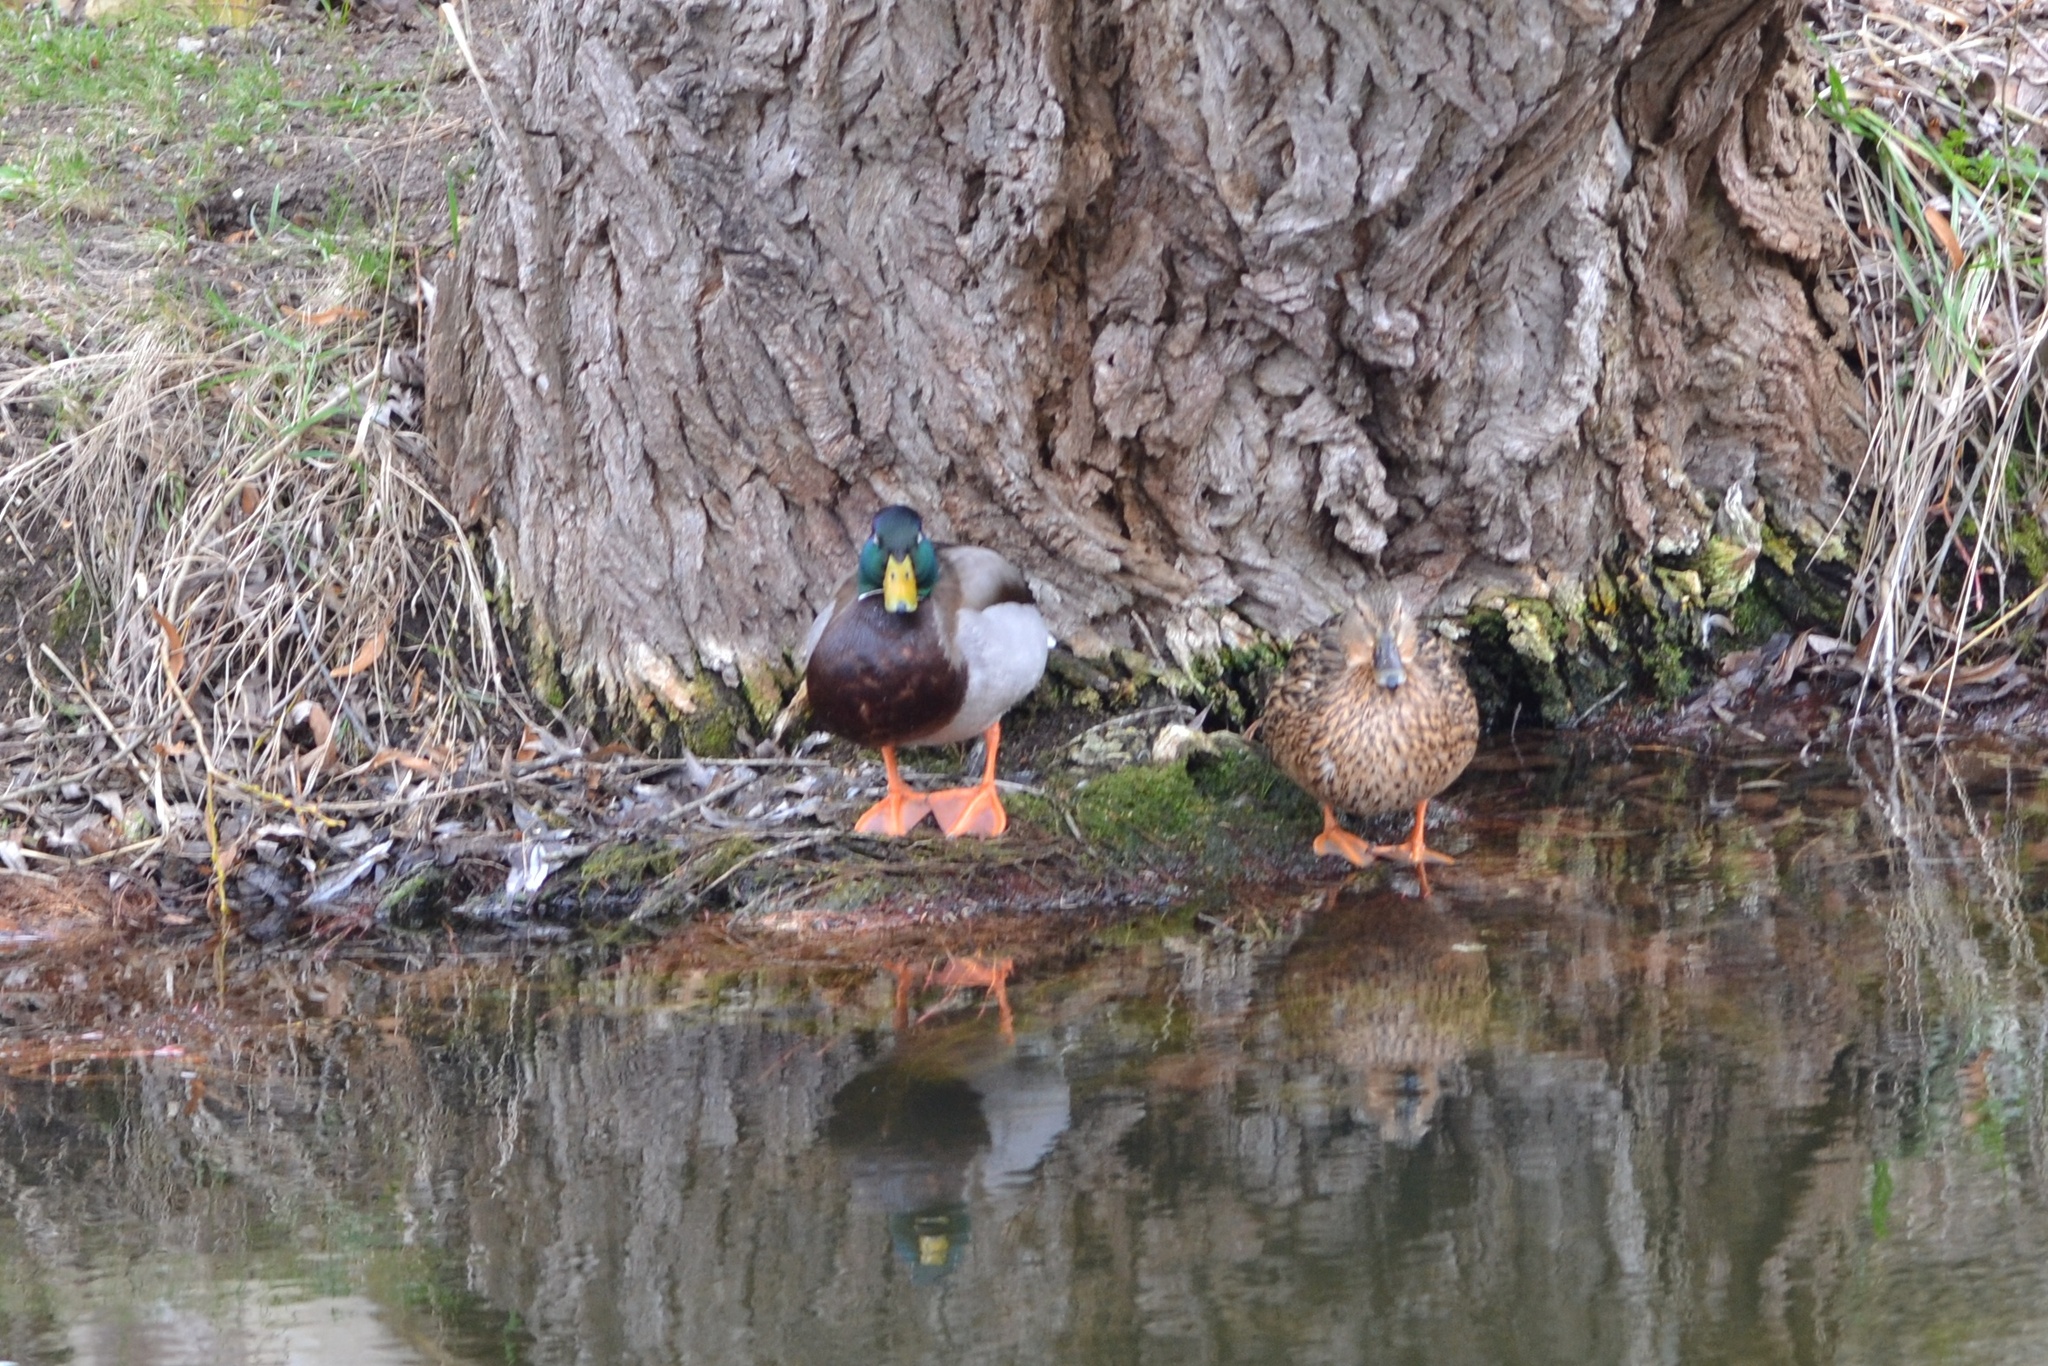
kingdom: Animalia
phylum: Chordata
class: Aves
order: Anseriformes
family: Anatidae
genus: Anas
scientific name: Anas platyrhynchos
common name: Mallard
